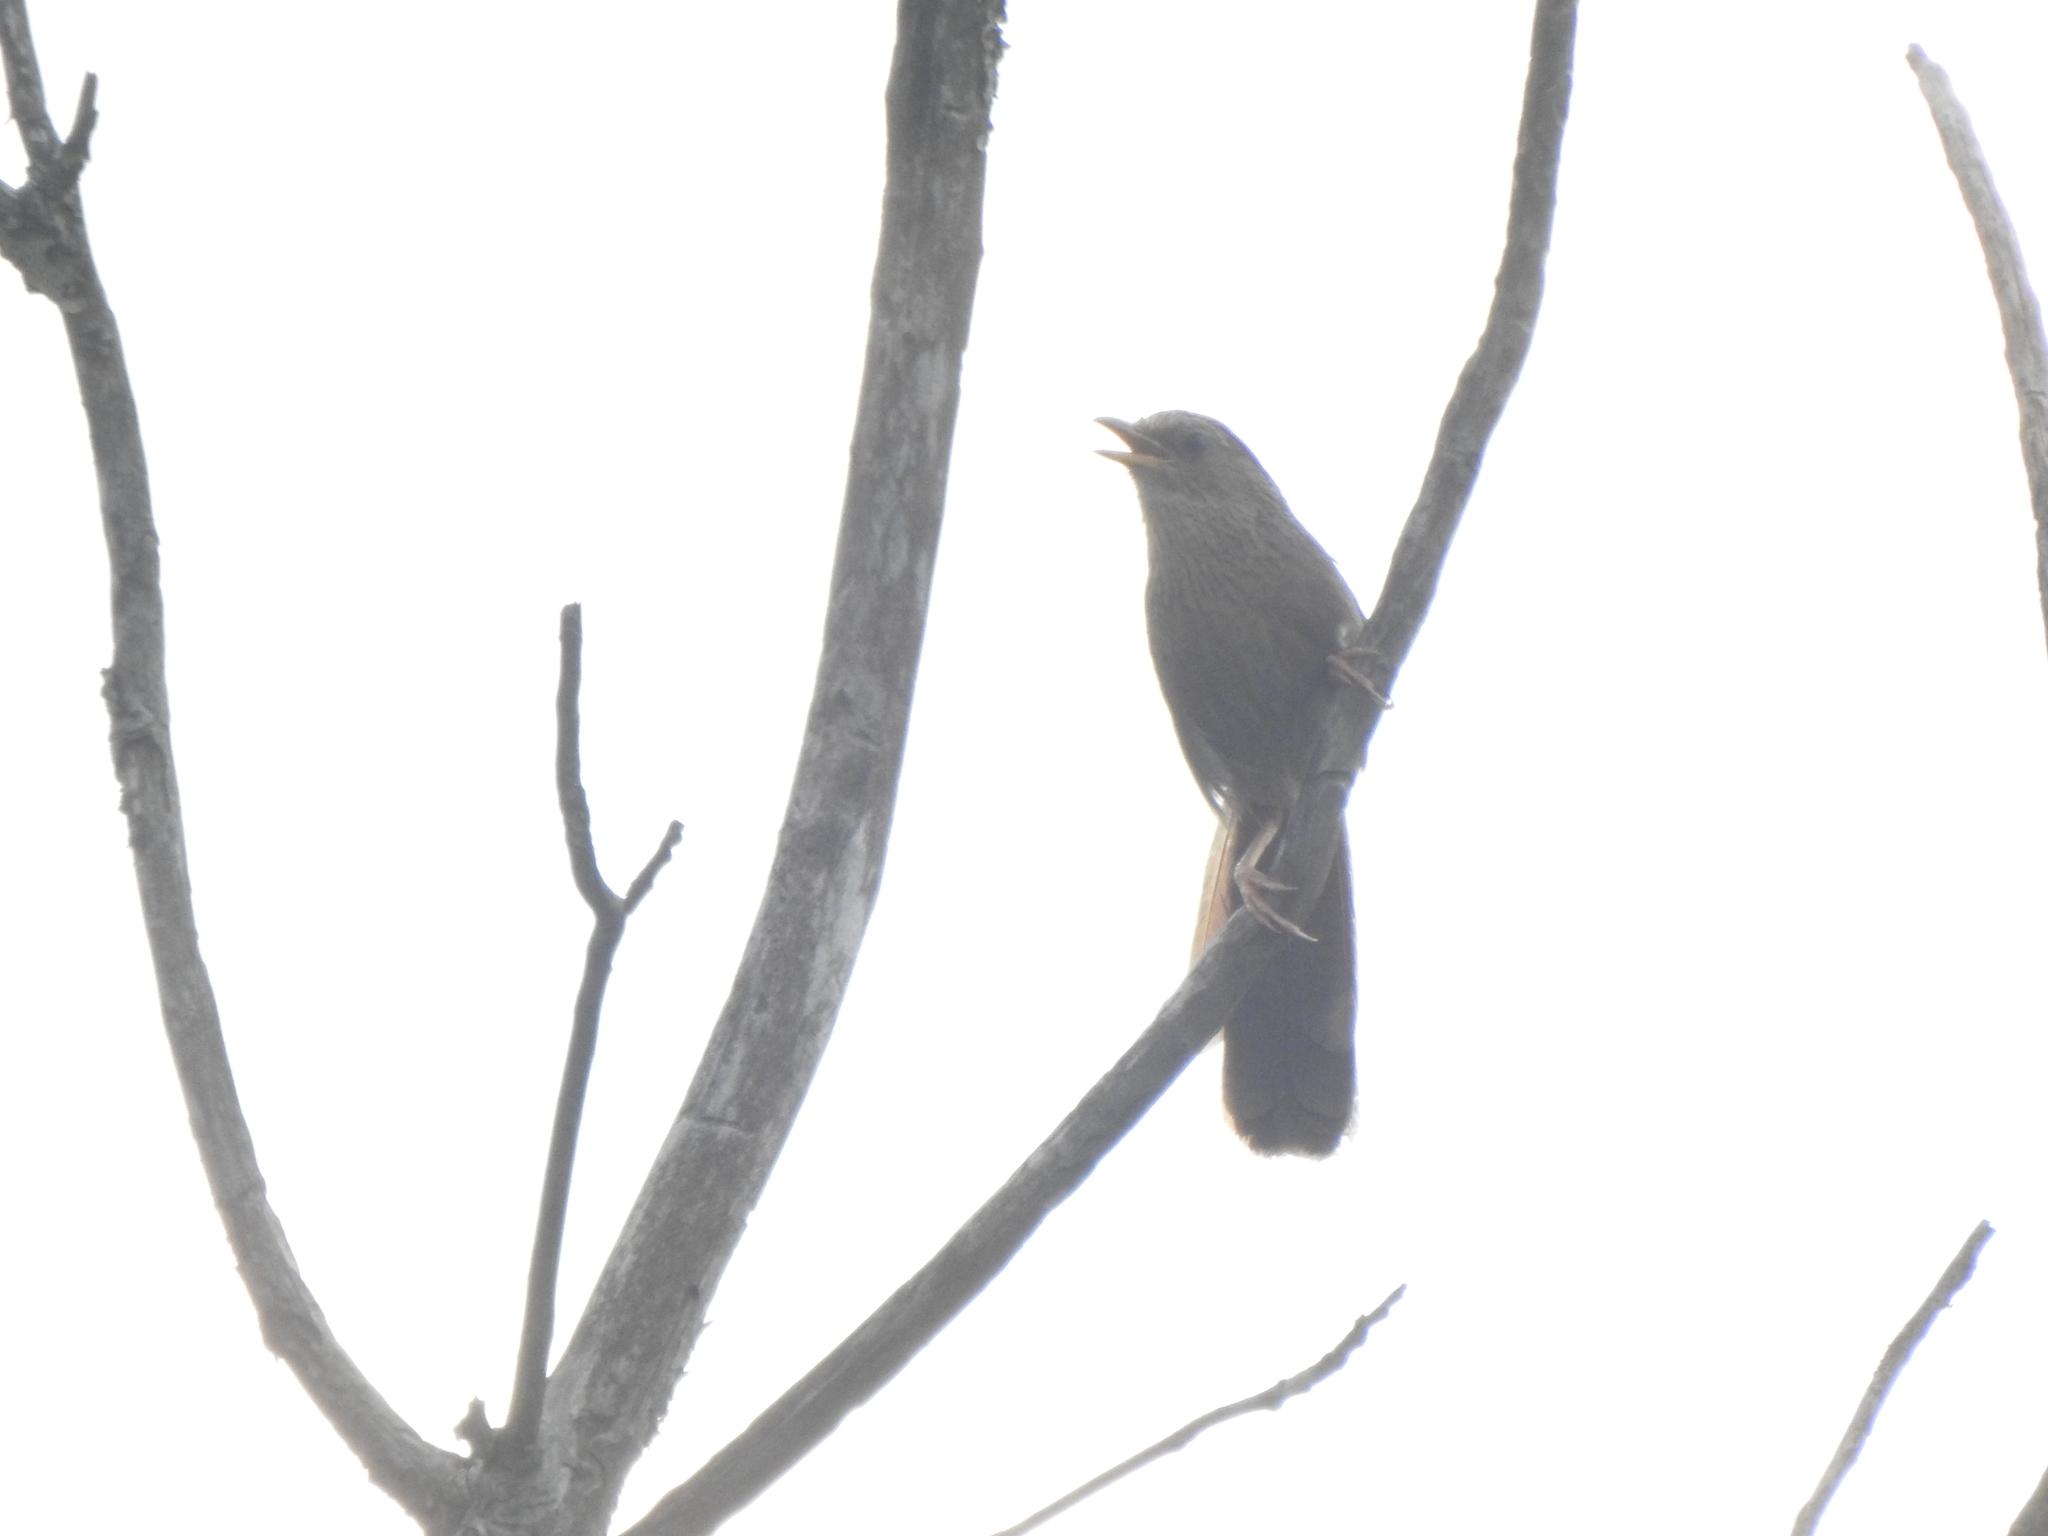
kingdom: Animalia
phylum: Chordata
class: Aves
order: Passeriformes
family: Leiothrichidae
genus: Garrulax
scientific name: Garrulax taewanus
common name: Taiwan hwamei
